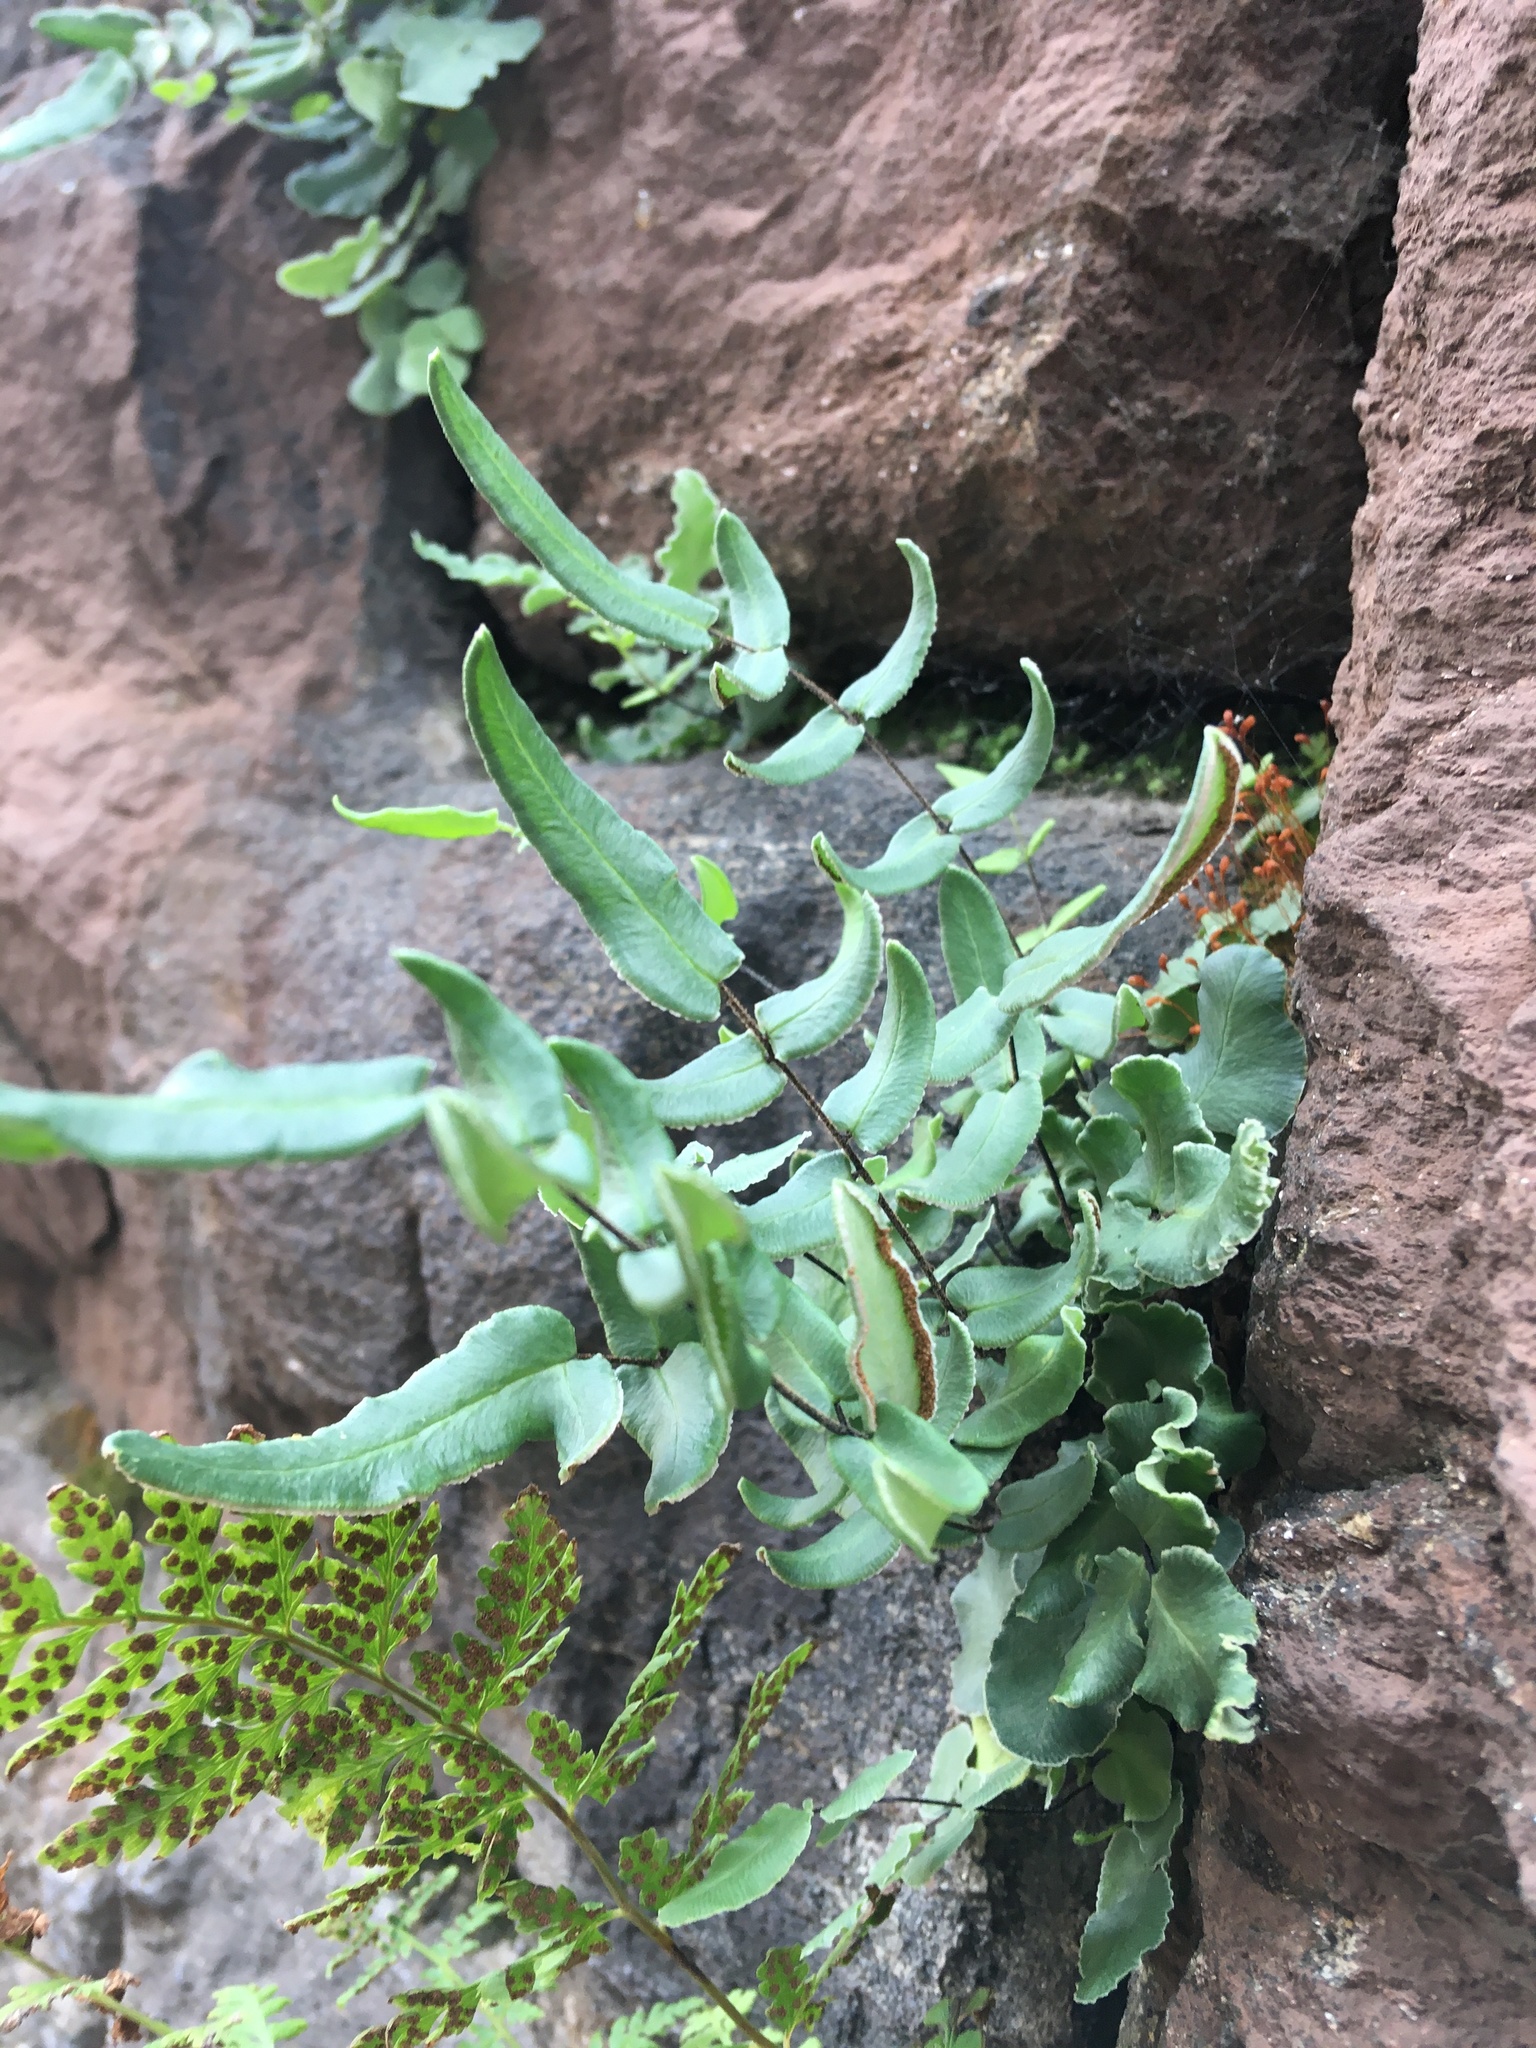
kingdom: Plantae
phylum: Tracheophyta
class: Polypodiopsida
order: Polypodiales
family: Pteridaceae
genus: Pellaea
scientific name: Pellaea atropurpurea
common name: Hairy cliffbrake
